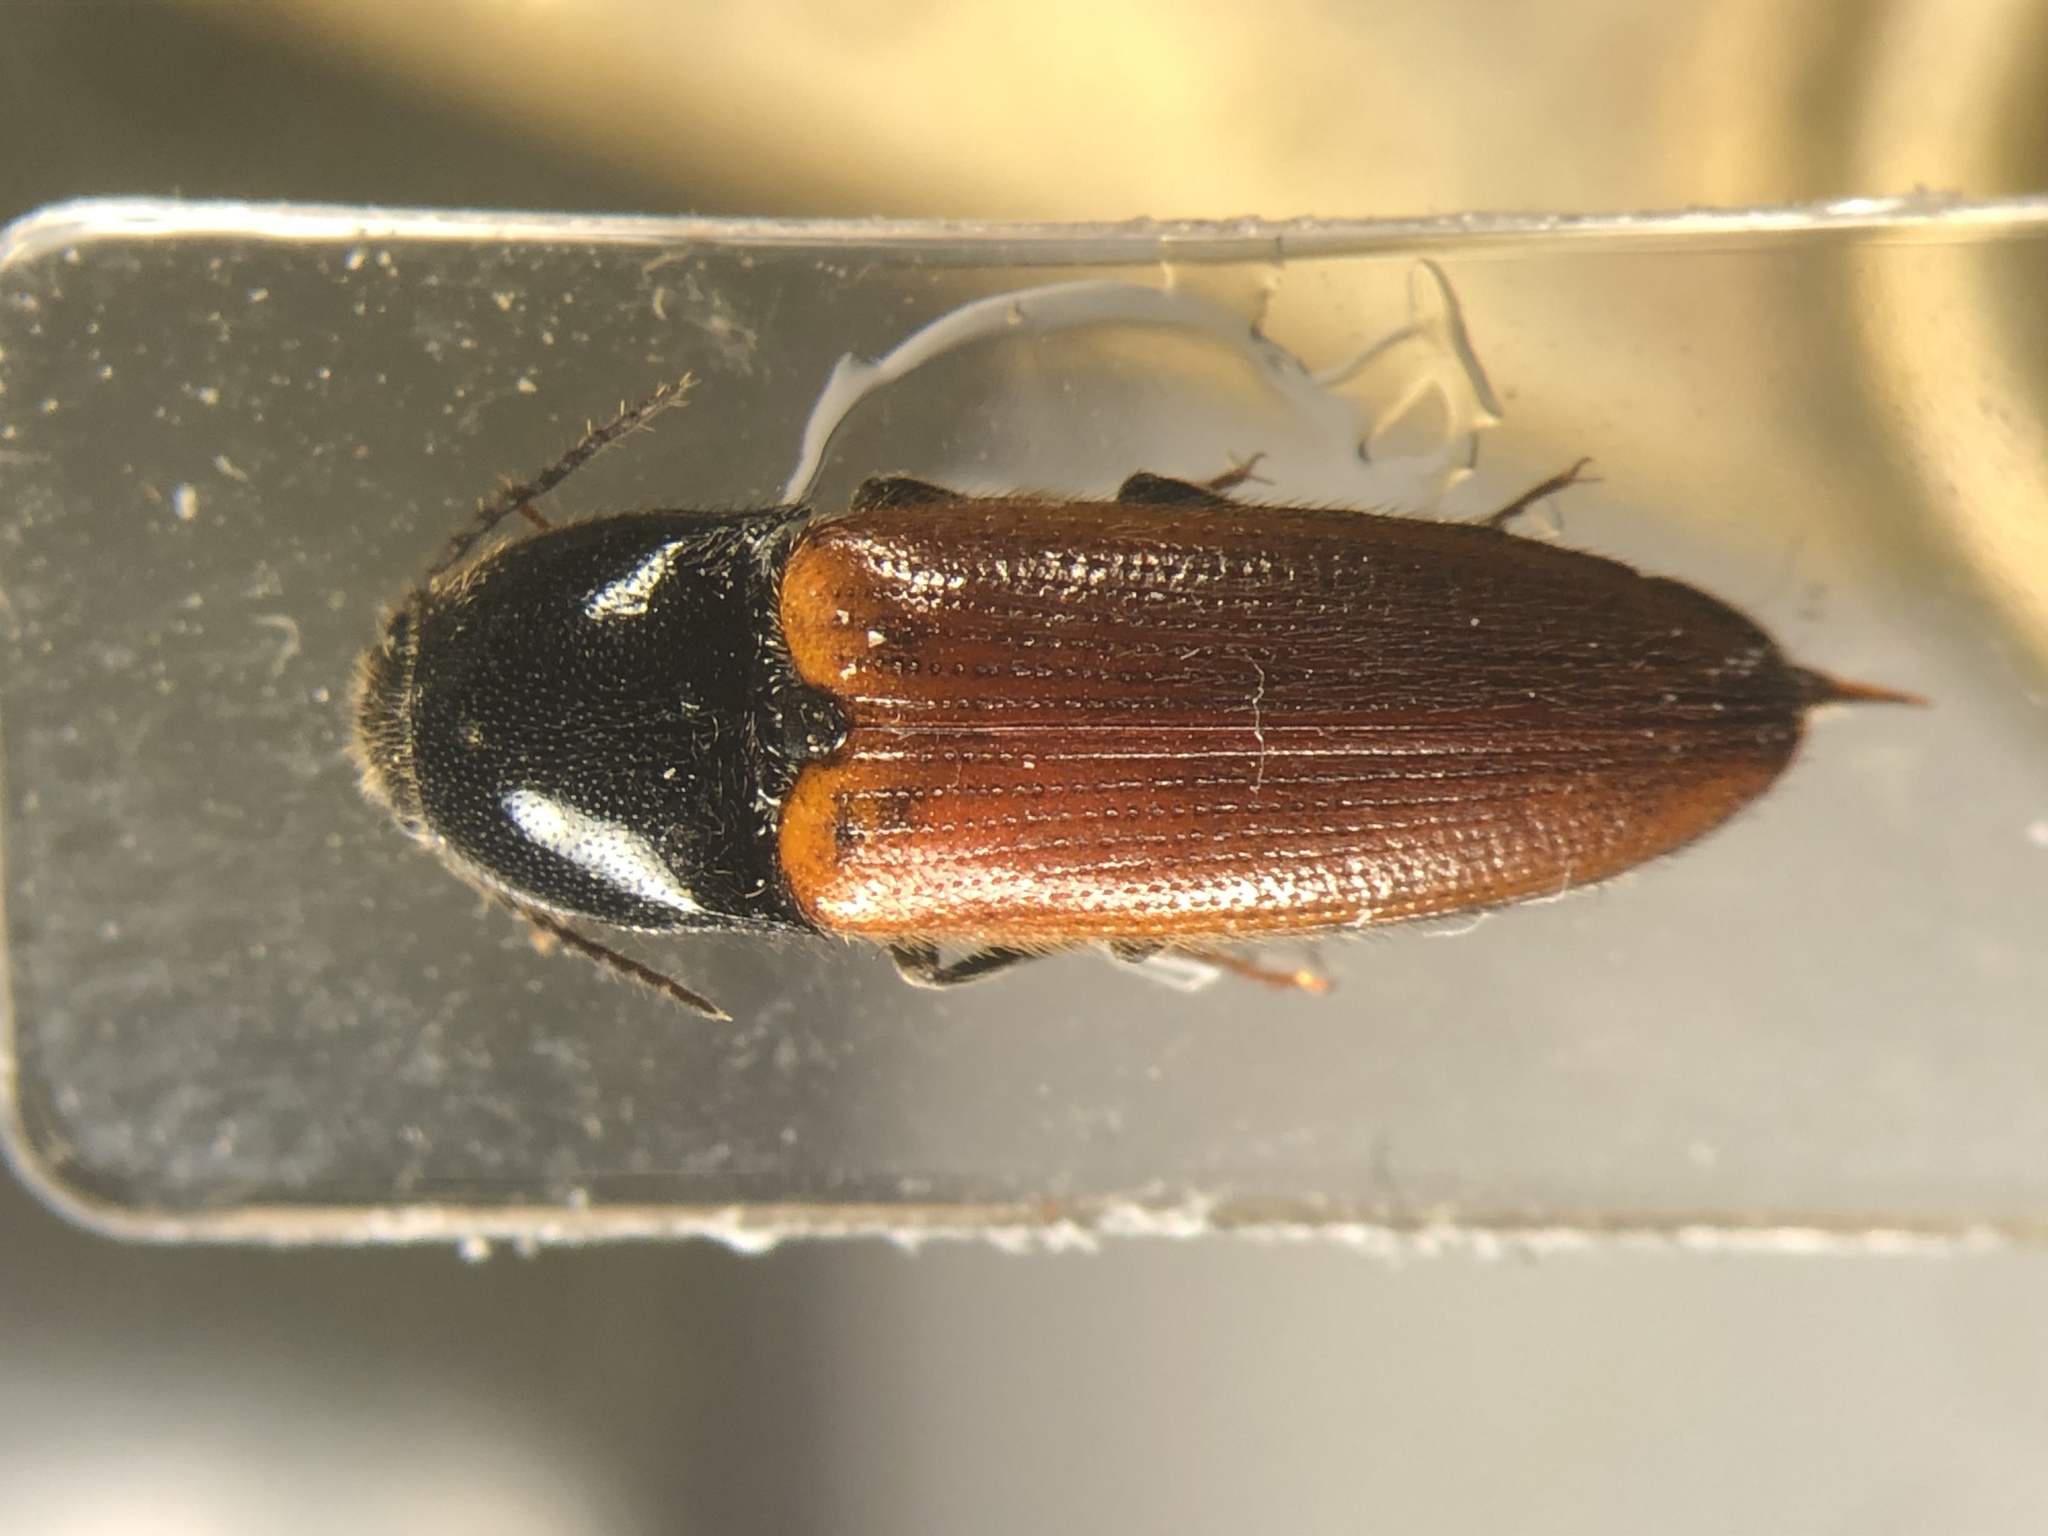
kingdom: Animalia
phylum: Arthropoda
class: Insecta
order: Coleoptera
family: Elateridae
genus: Ampedus
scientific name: Ampedus sanguinipennis
